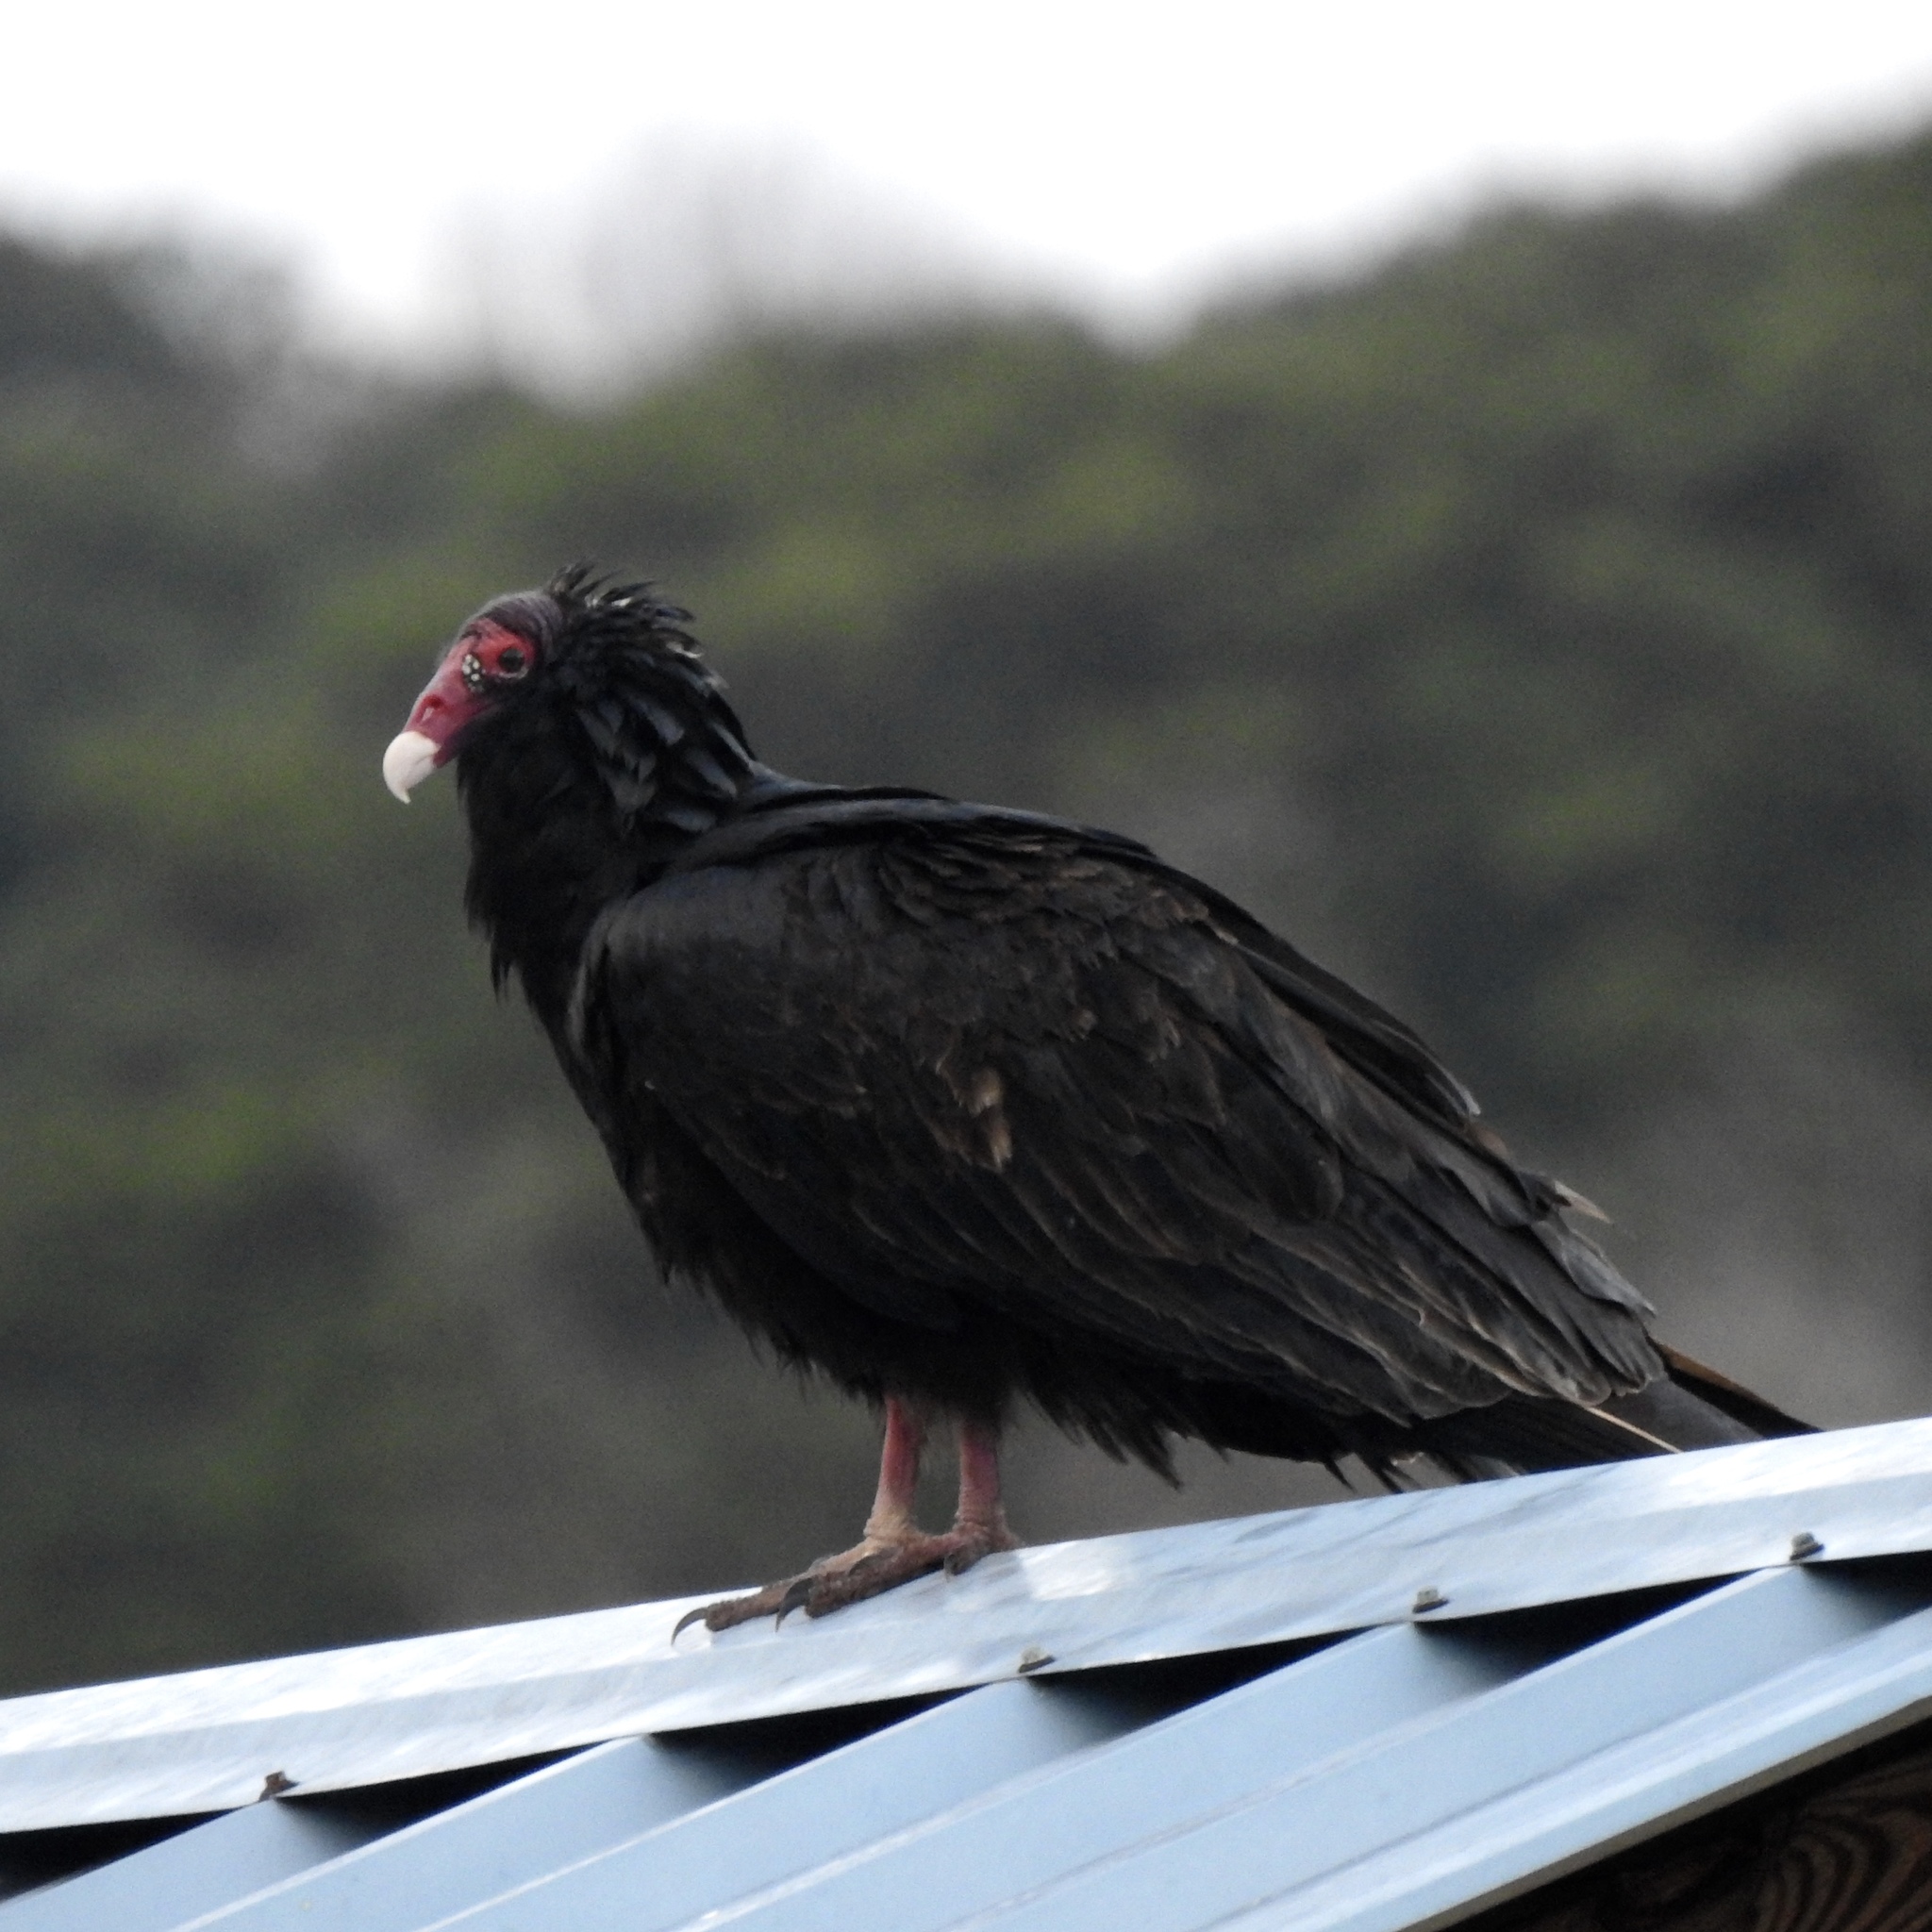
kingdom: Animalia
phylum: Chordata
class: Aves
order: Accipitriformes
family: Cathartidae
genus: Cathartes
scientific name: Cathartes aura
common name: Turkey vulture
